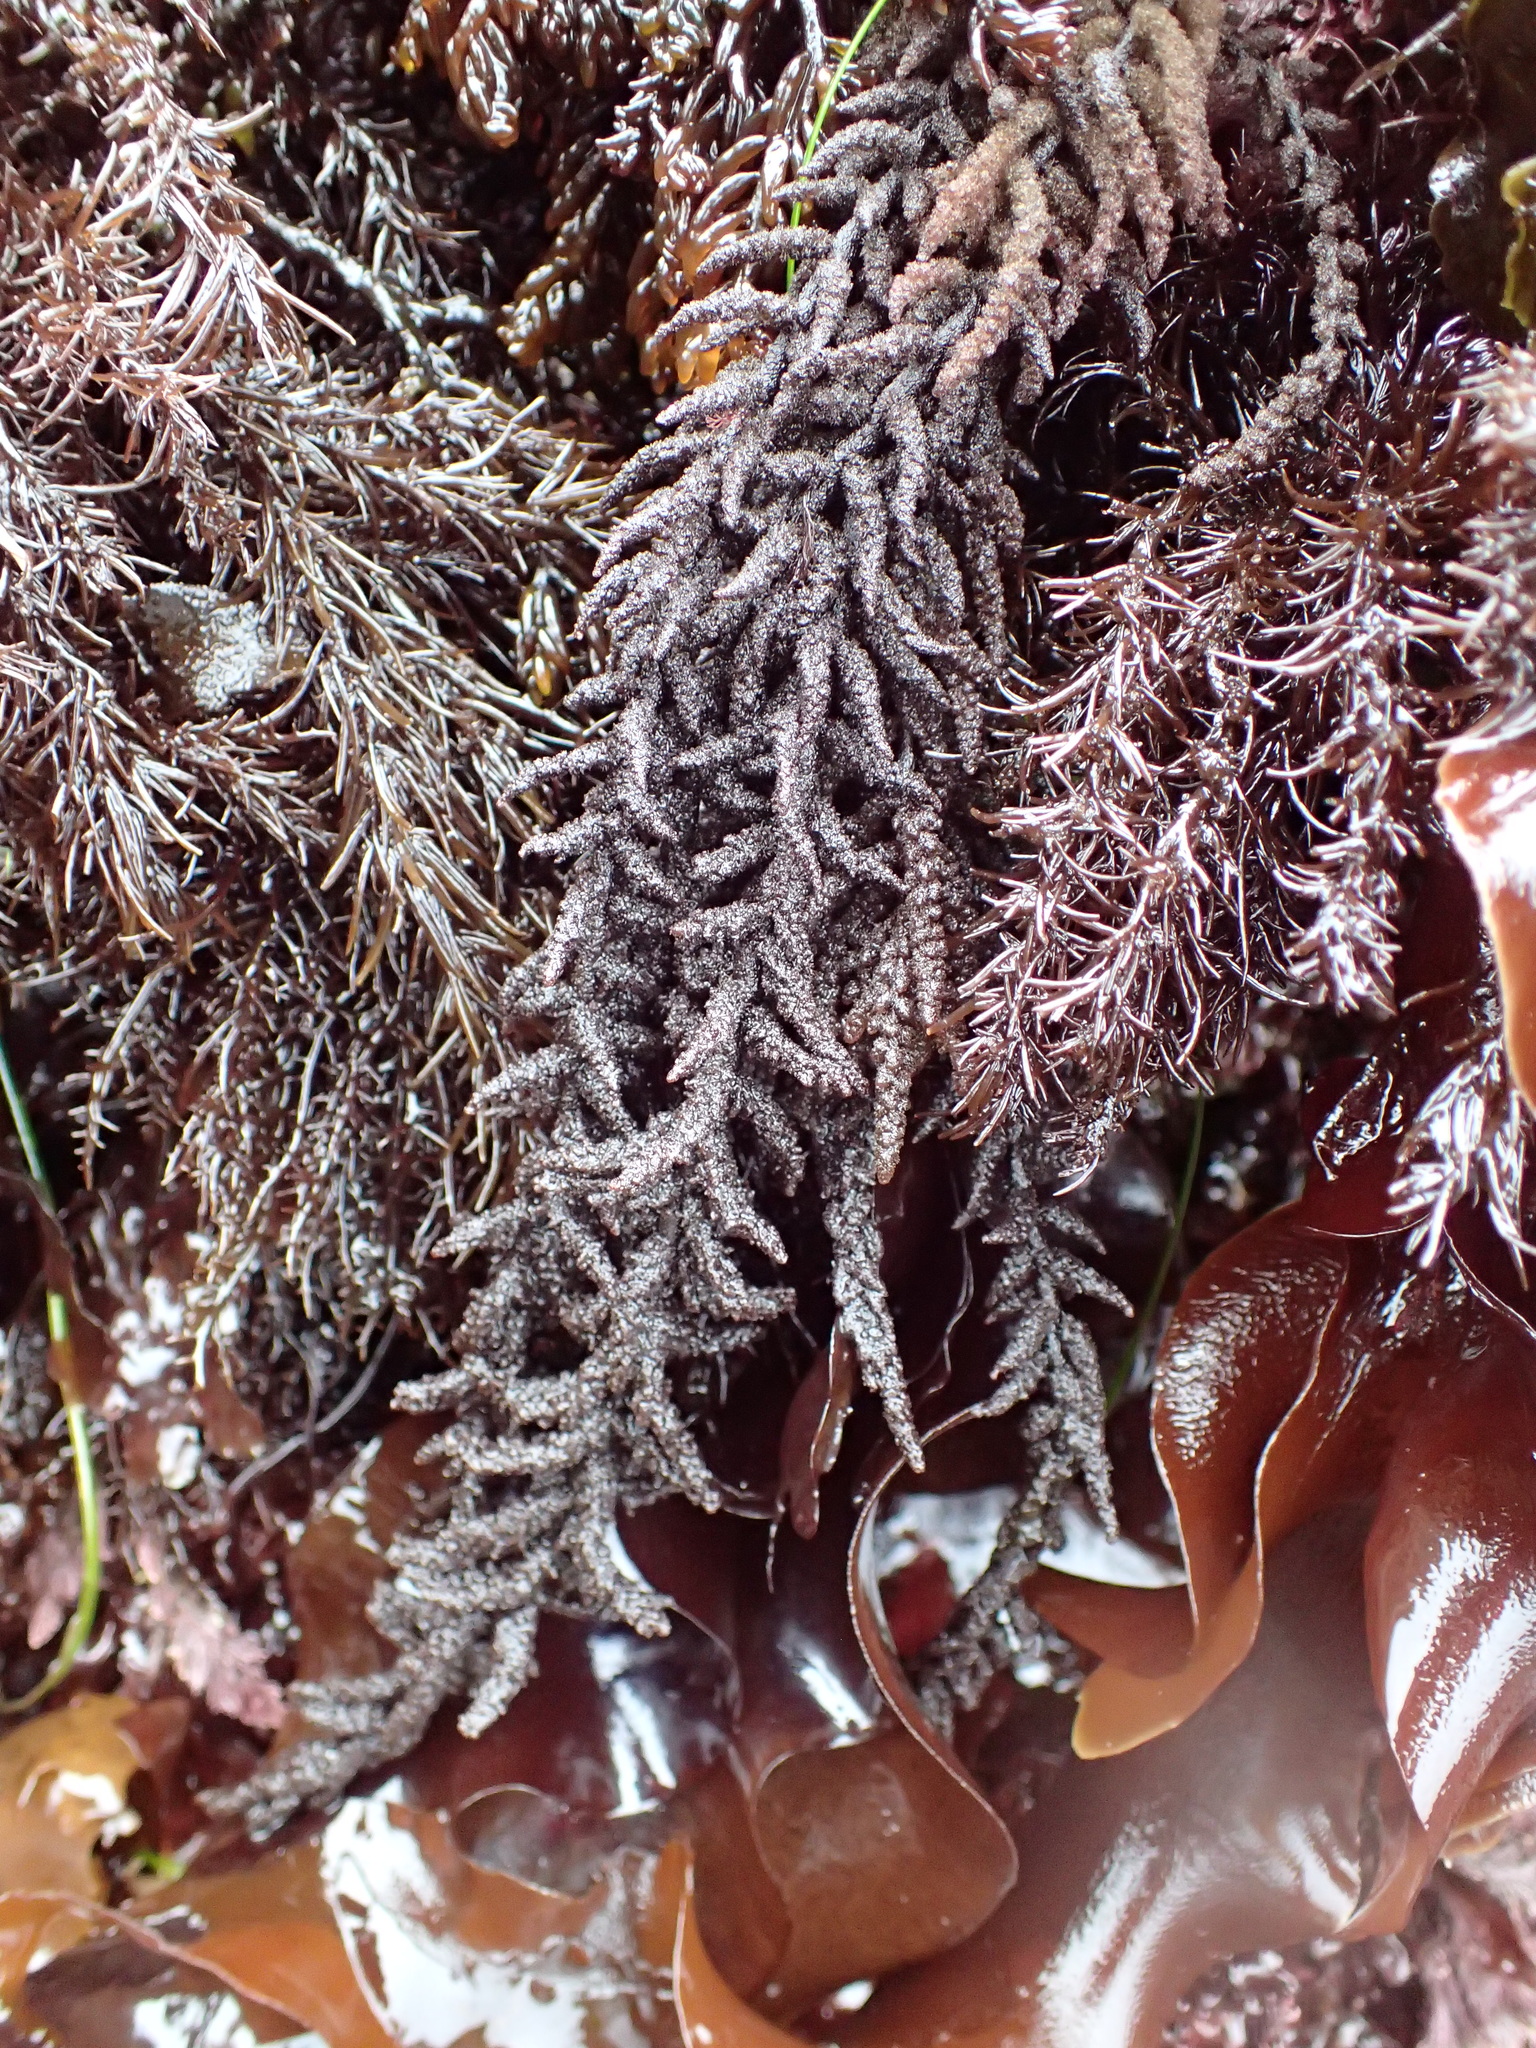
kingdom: Plantae
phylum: Rhodophyta
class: Florideophyceae
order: Ceramiales
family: Callithamniaceae
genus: Callithamnion
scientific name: Callithamnion pikeanum
